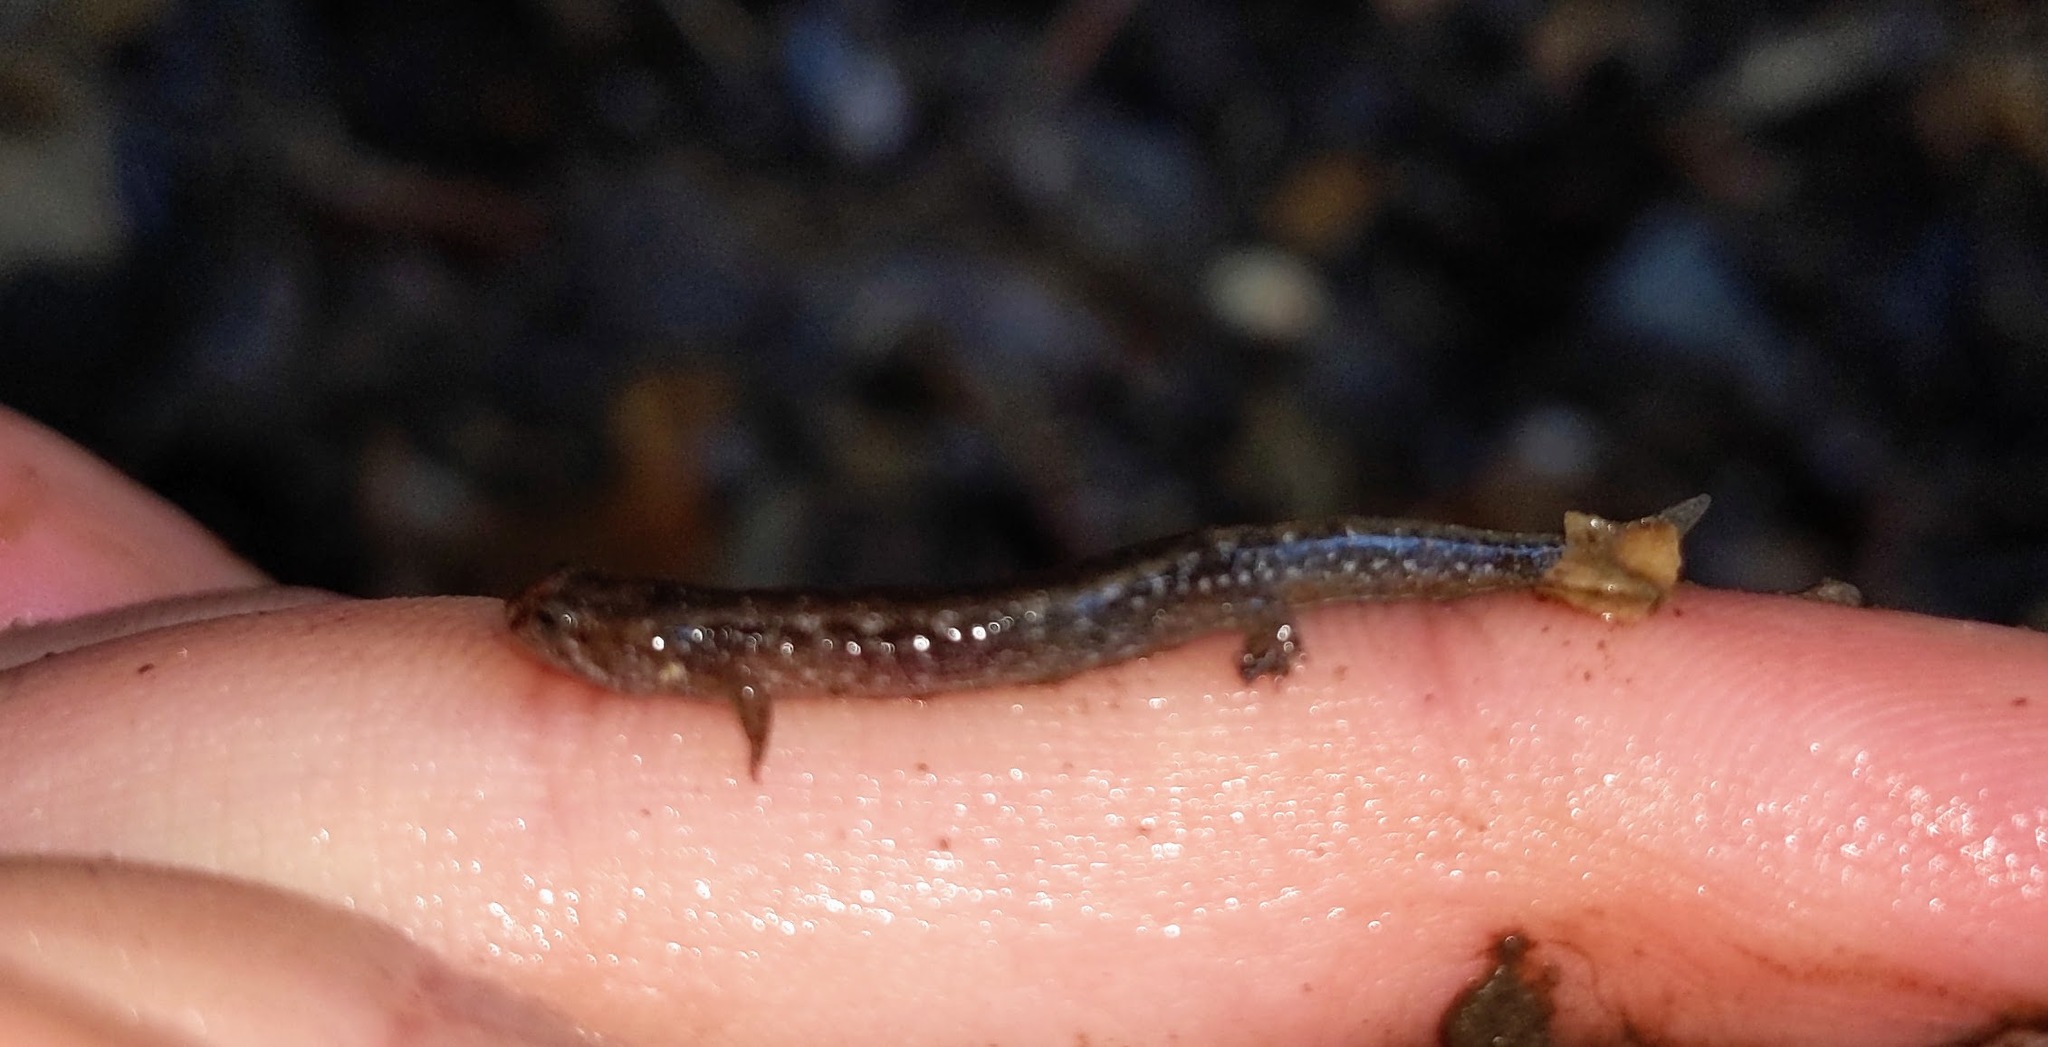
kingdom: Animalia
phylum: Chordata
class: Amphibia
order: Caudata
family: Plethodontidae
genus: Desmognathus
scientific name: Desmognathus fuscus
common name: Northern dusky salamander
